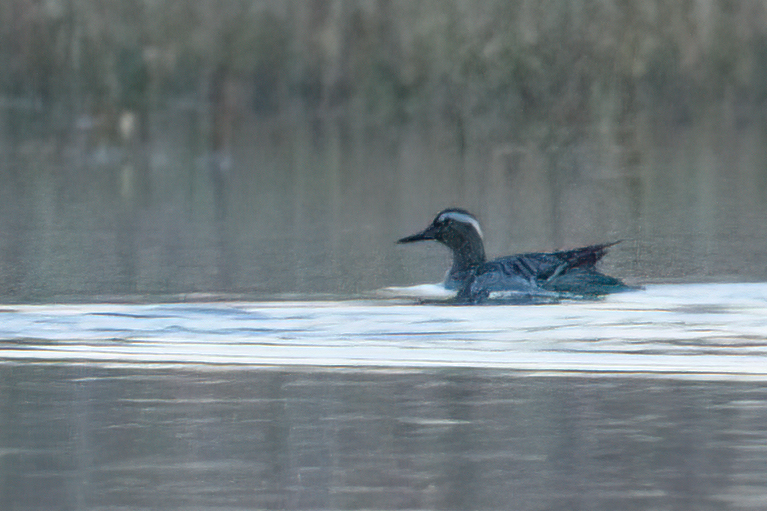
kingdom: Animalia
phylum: Chordata
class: Aves
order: Anseriformes
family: Anatidae
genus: Spatula
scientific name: Spatula querquedula
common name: Garganey
